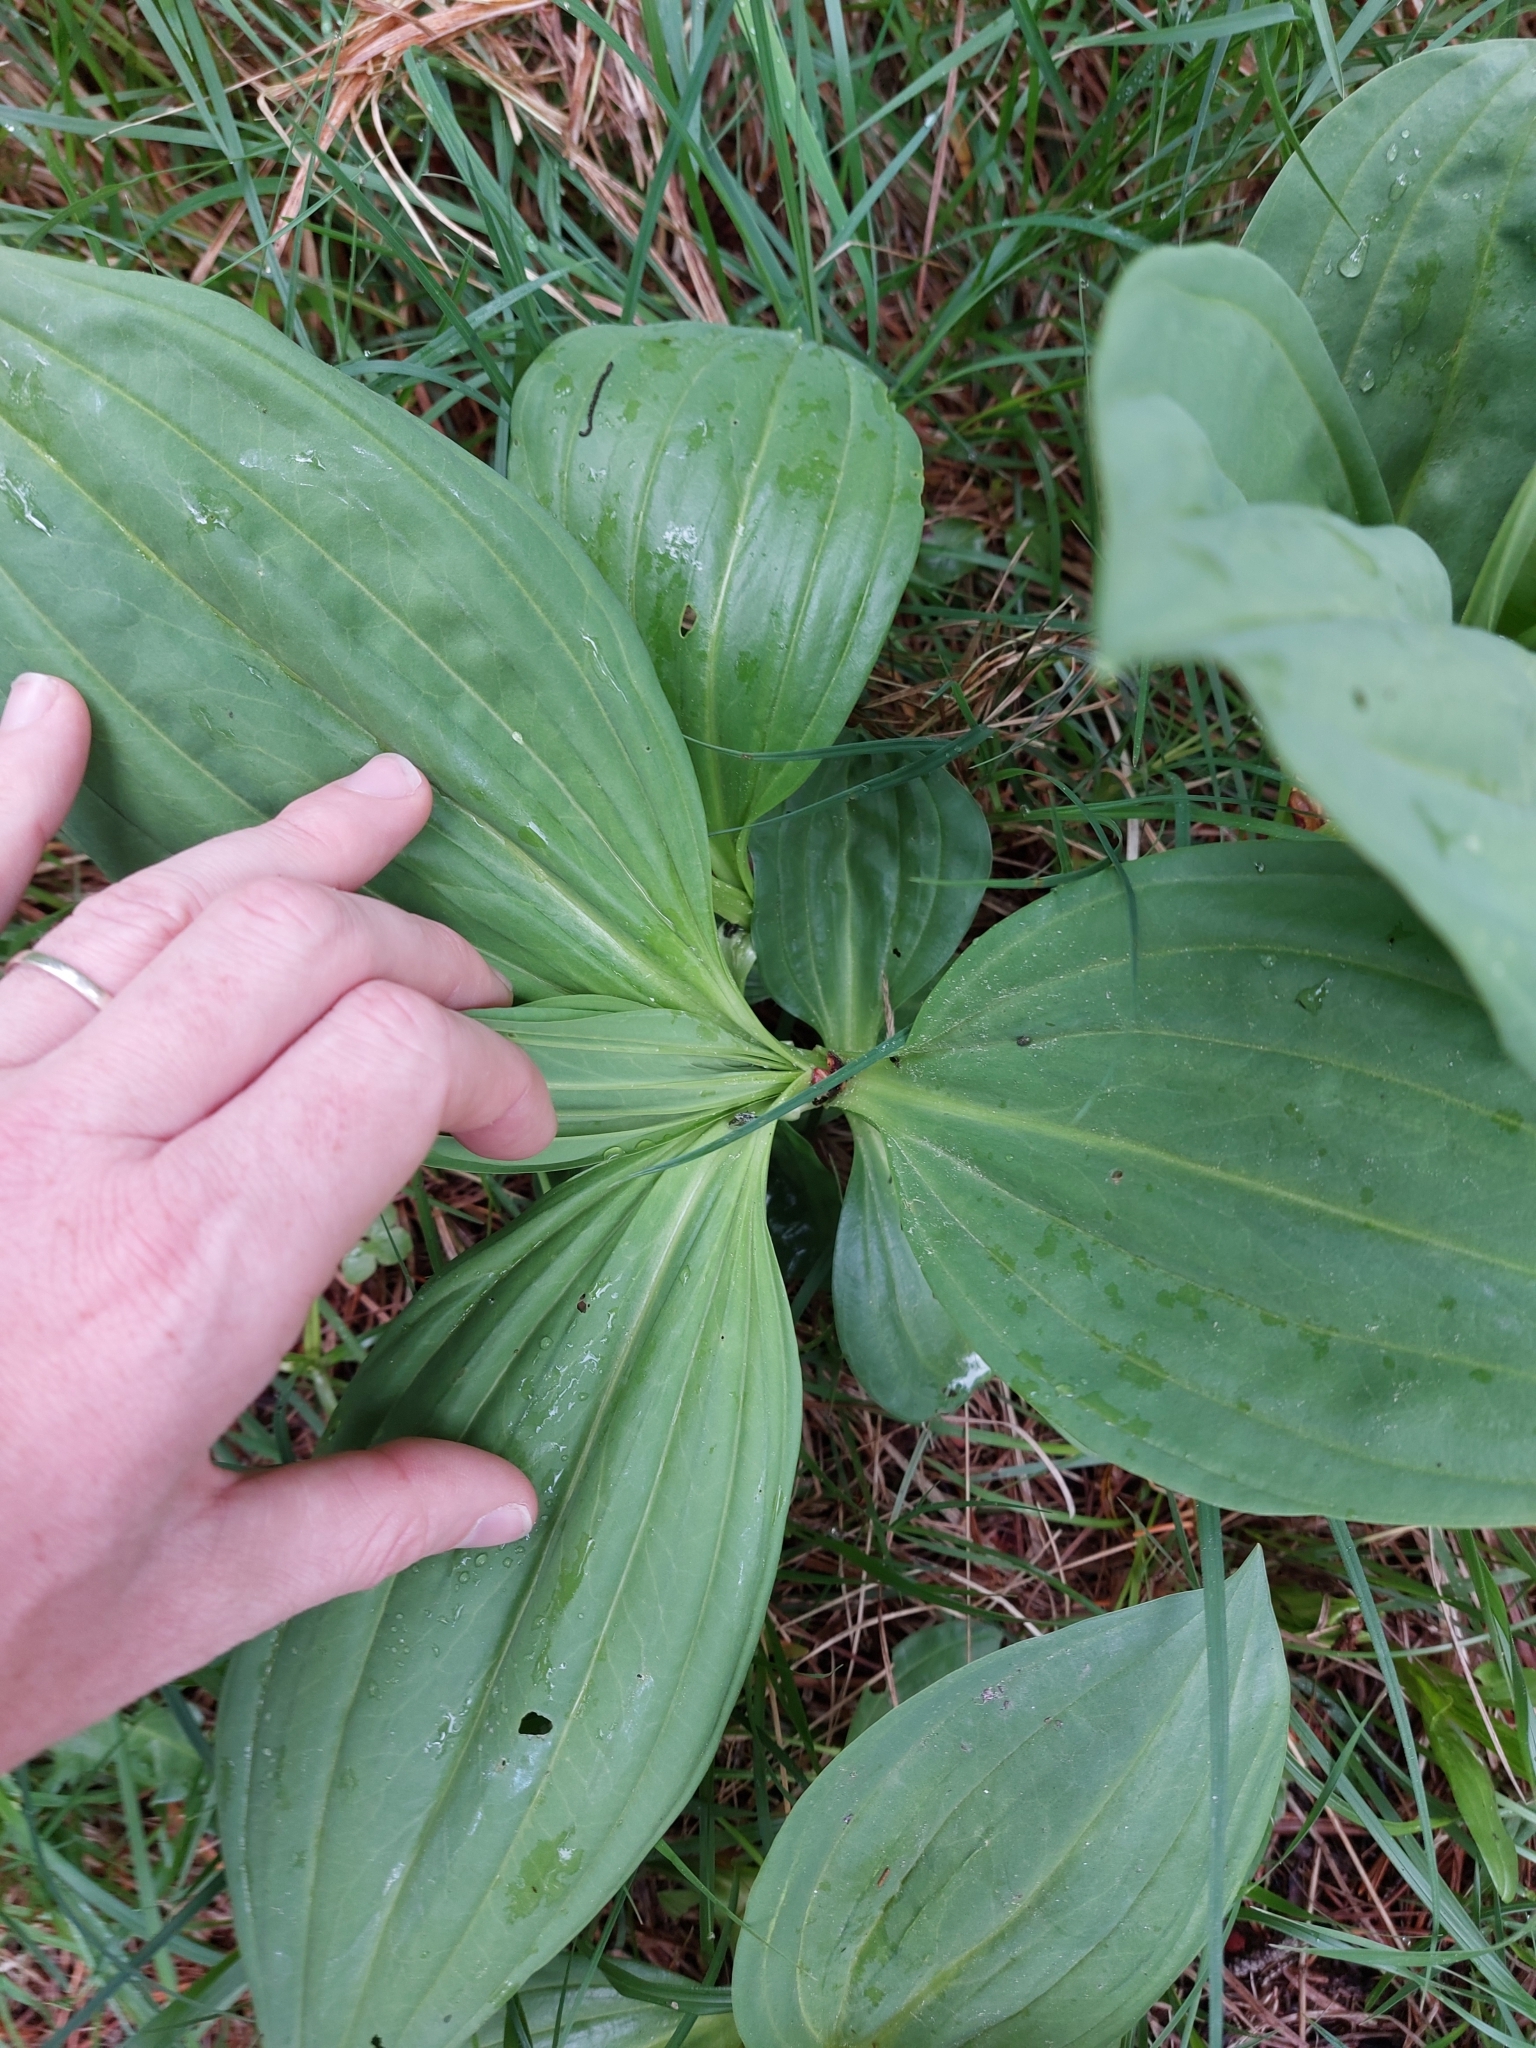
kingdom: Plantae
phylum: Tracheophyta
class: Magnoliopsida
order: Gentianales
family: Gentianaceae
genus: Gentiana
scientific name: Gentiana lutea
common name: Great yellow gentian
